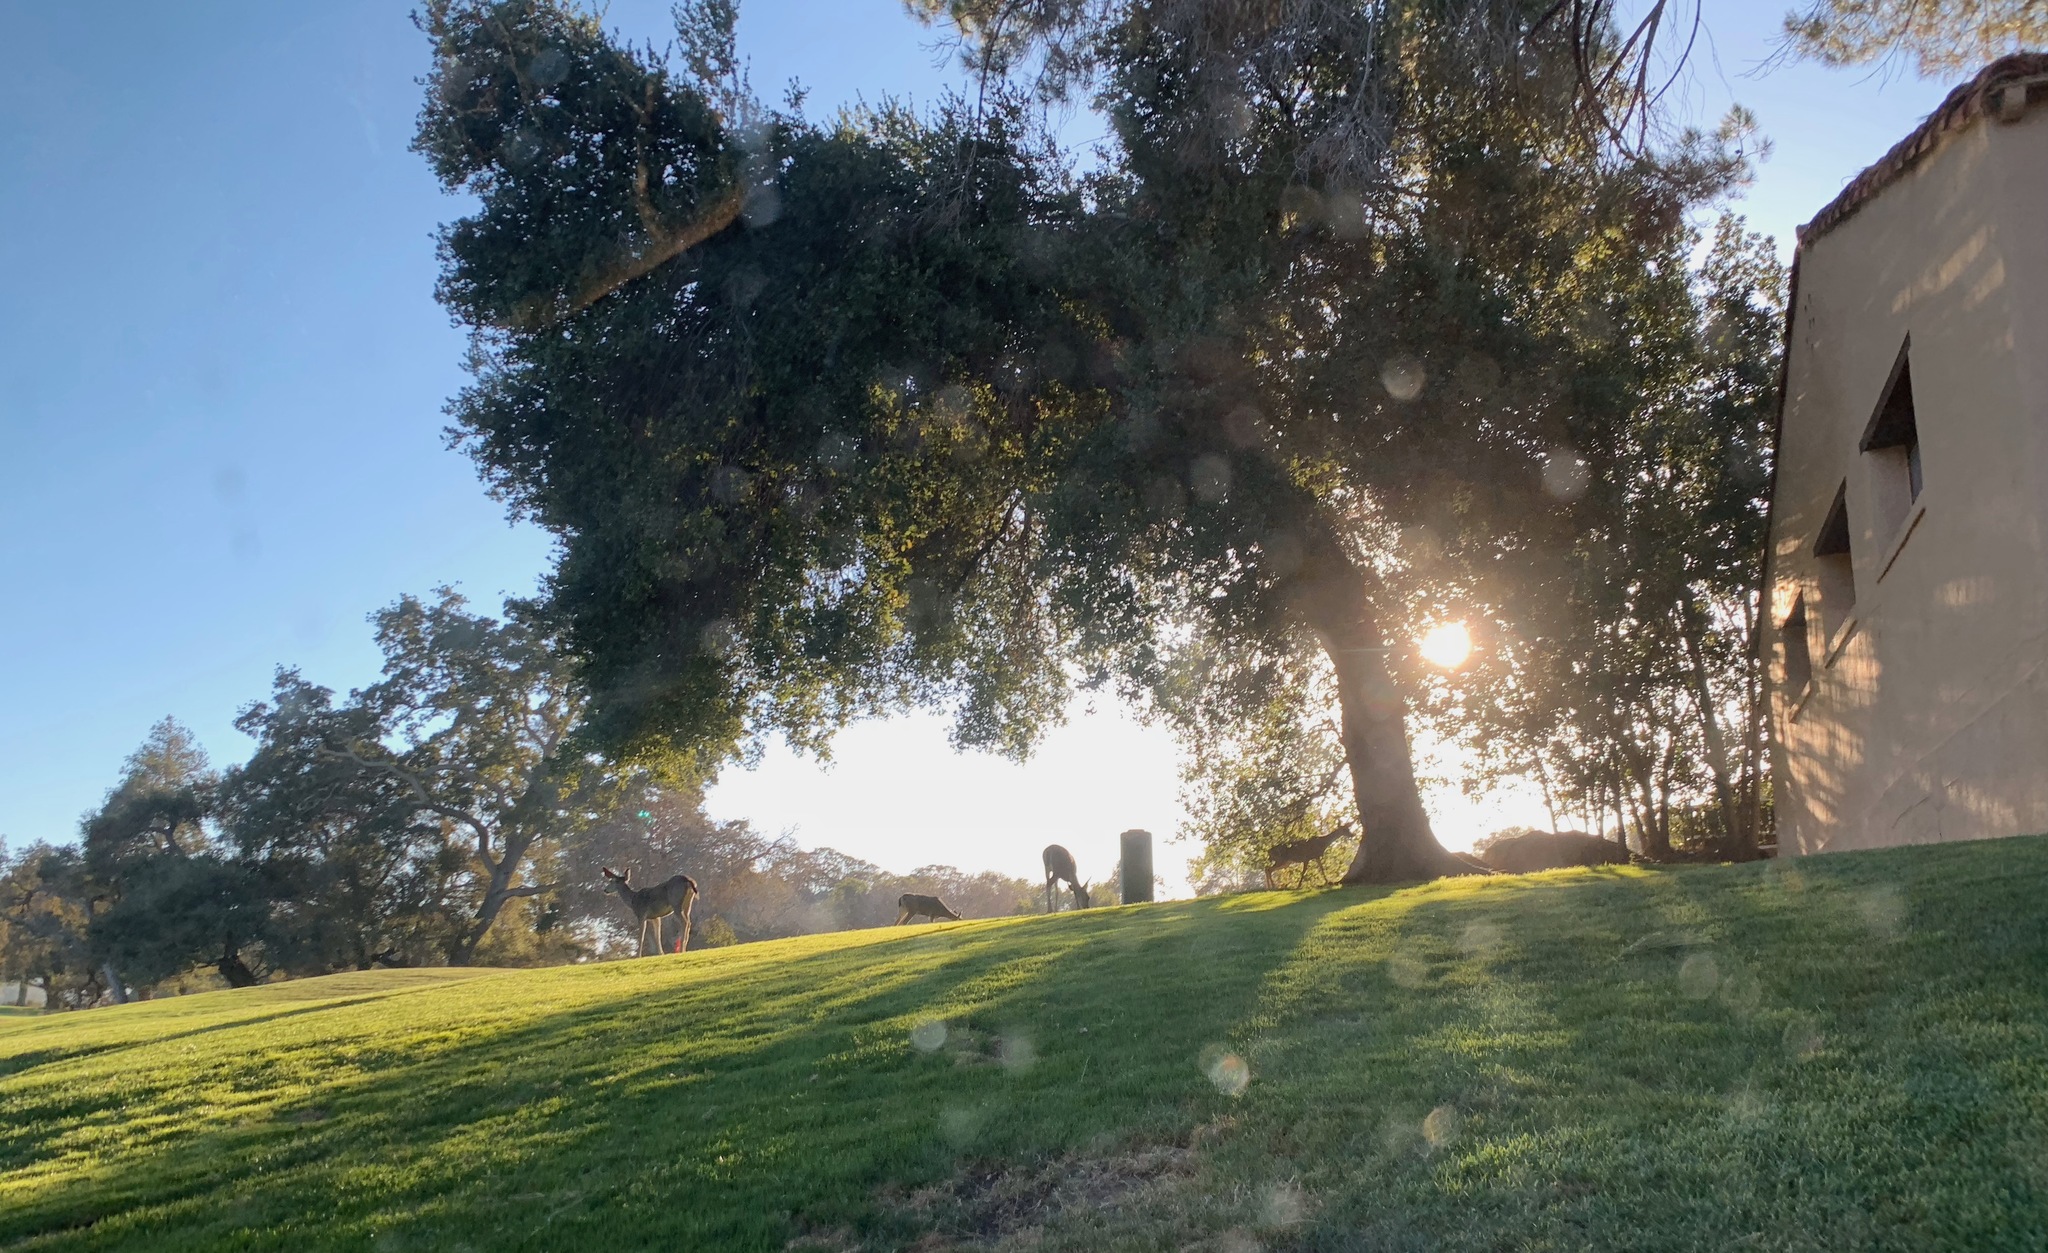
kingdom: Animalia
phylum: Chordata
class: Mammalia
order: Artiodactyla
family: Cervidae
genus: Odocoileus
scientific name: Odocoileus hemionus
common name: Mule deer
